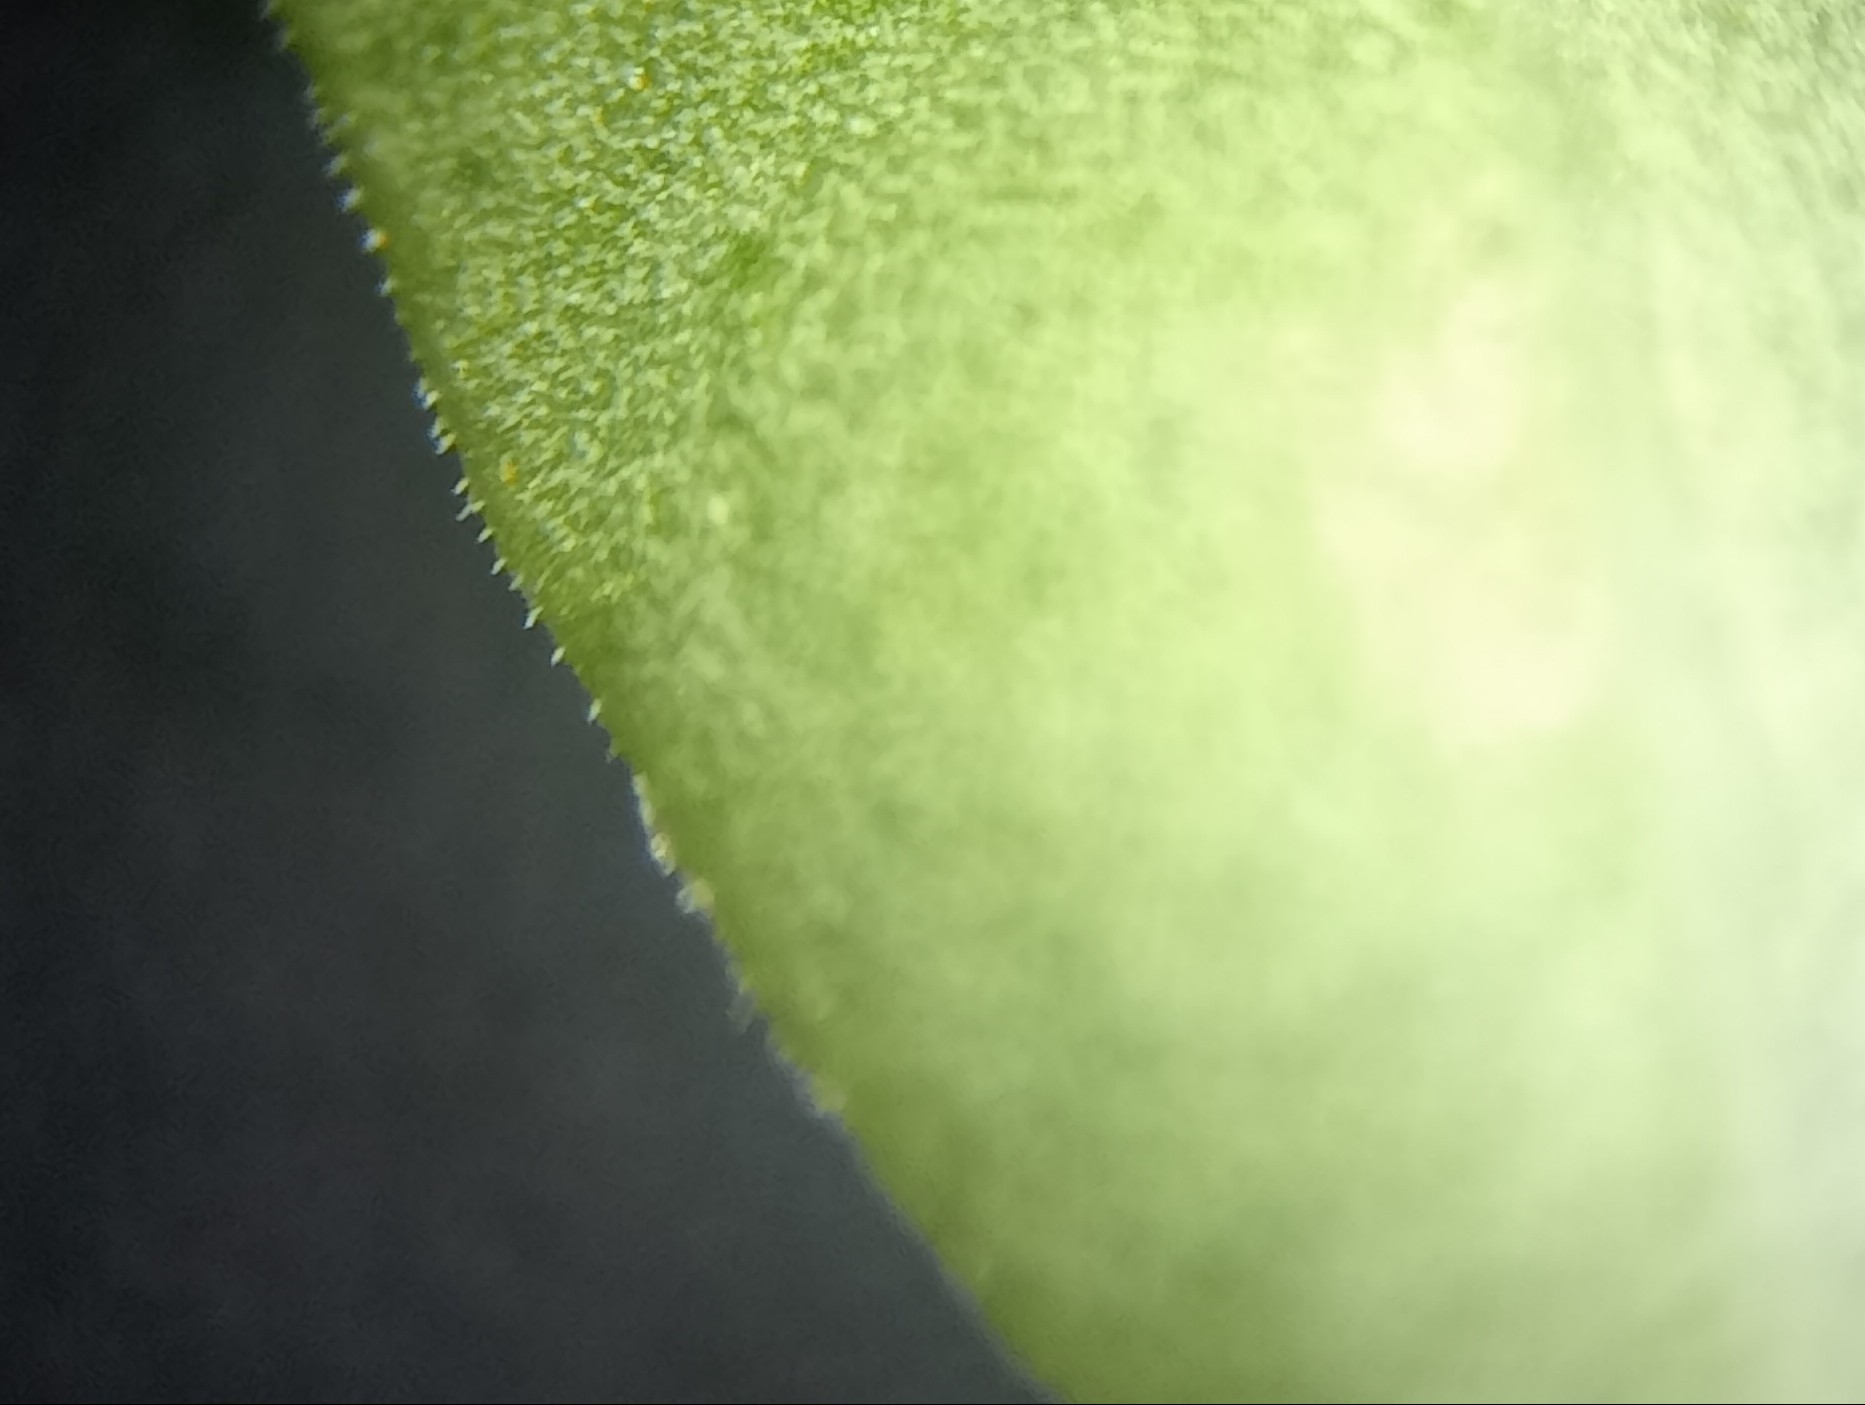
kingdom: Plantae
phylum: Tracheophyta
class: Magnoliopsida
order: Lamiales
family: Plantaginaceae
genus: Veronica
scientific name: Veronica traversii
